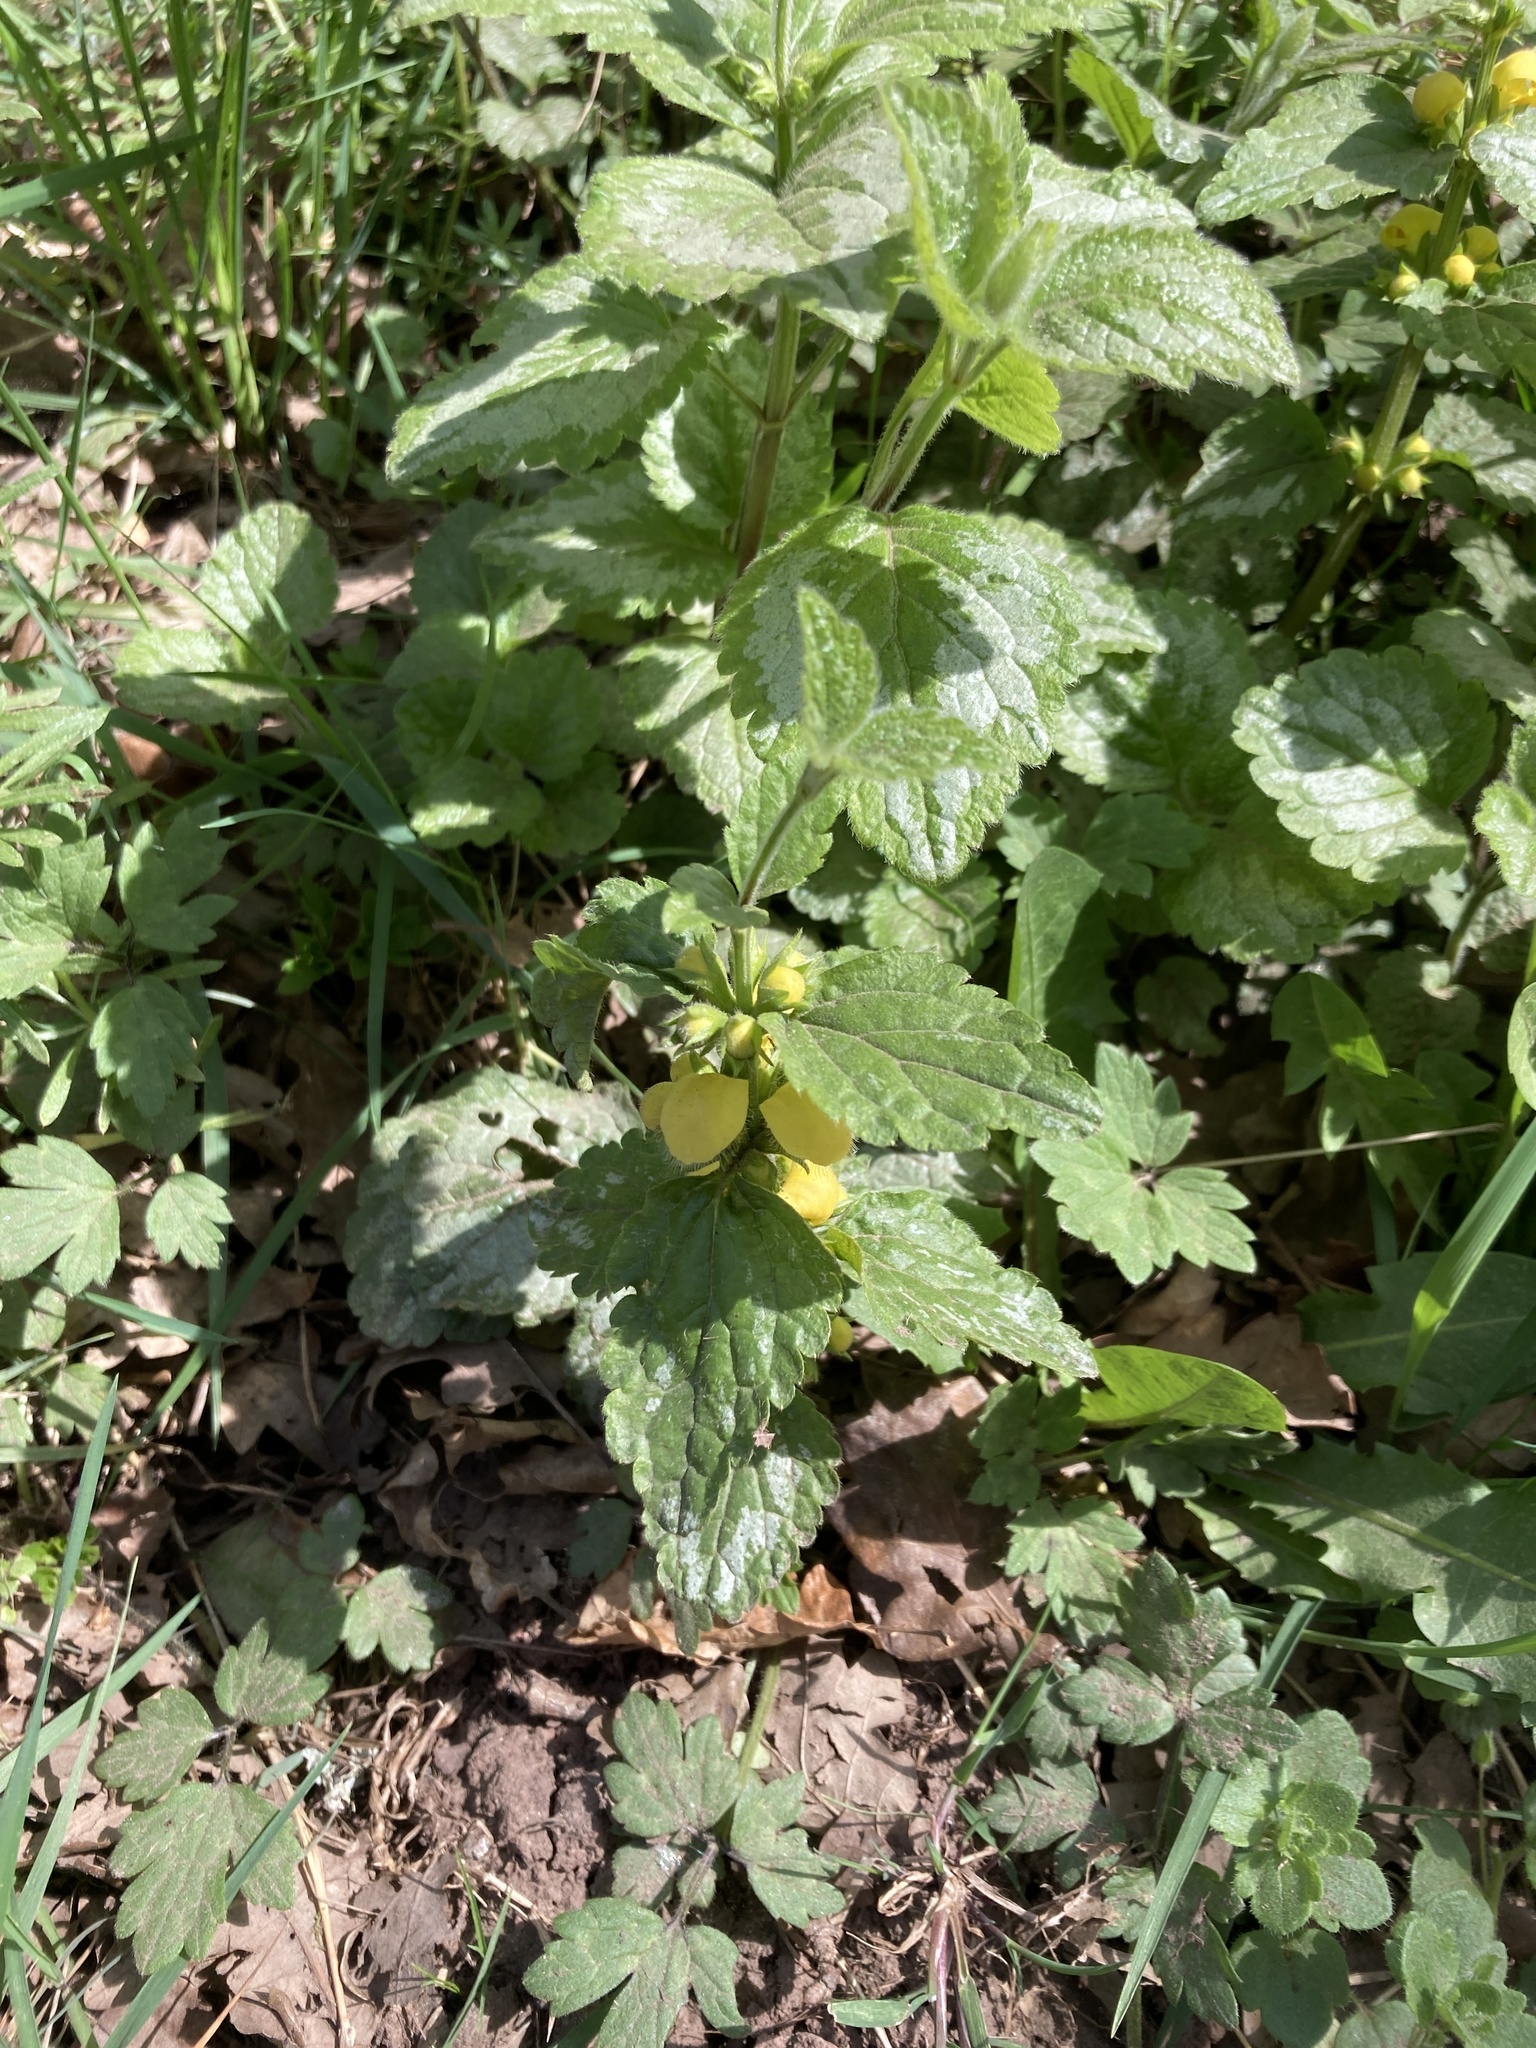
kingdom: Plantae
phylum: Tracheophyta
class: Magnoliopsida
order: Lamiales
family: Lamiaceae
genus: Lamium
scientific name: Lamium galeobdolon
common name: Yellow archangel
